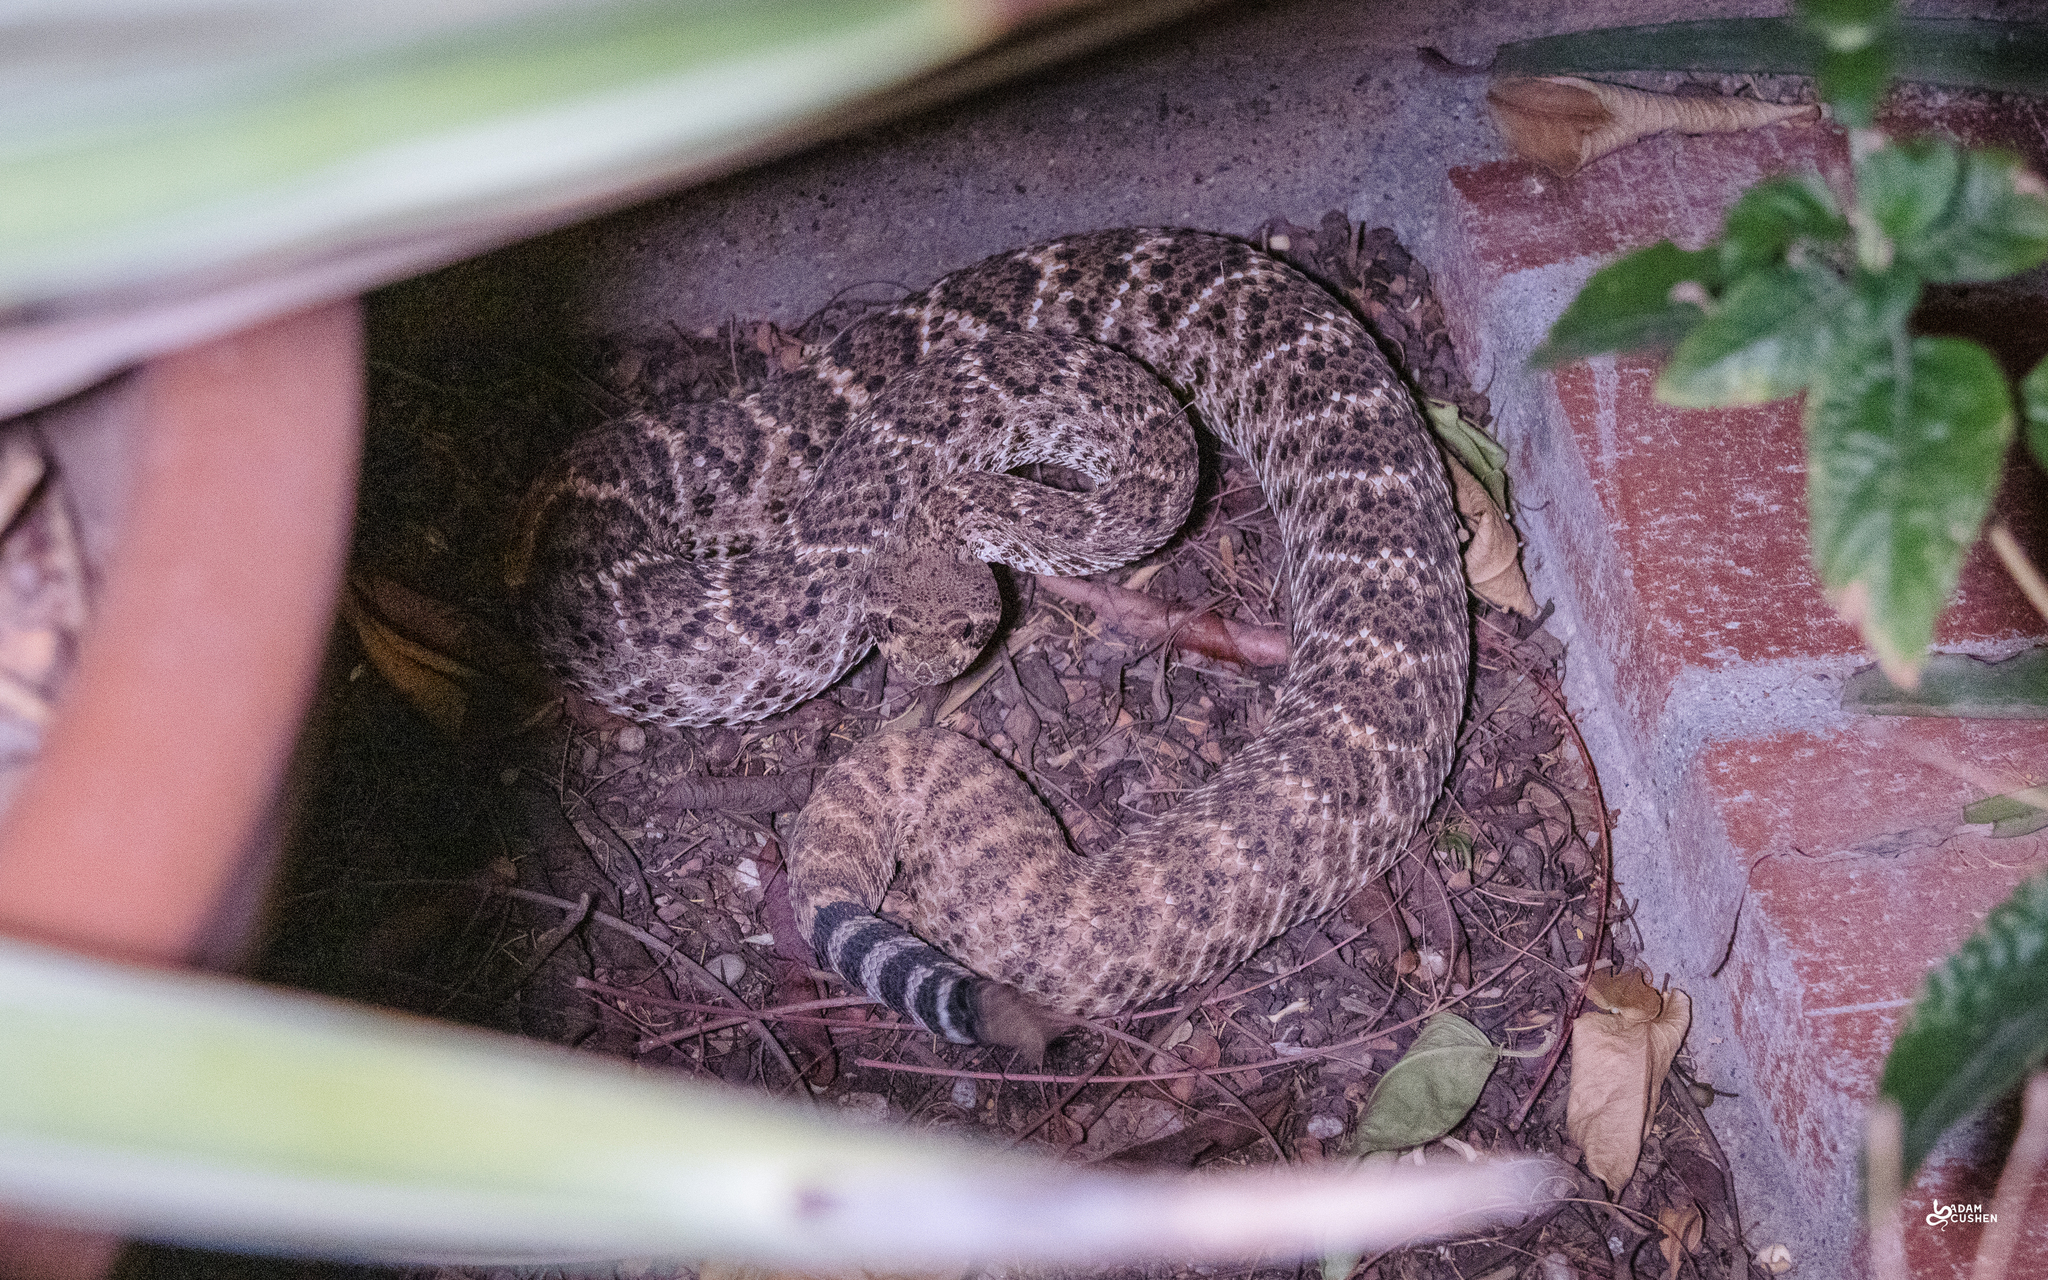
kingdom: Animalia
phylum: Chordata
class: Squamata
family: Viperidae
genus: Crotalus
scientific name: Crotalus atrox
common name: Western diamond-backed rattlesnake
